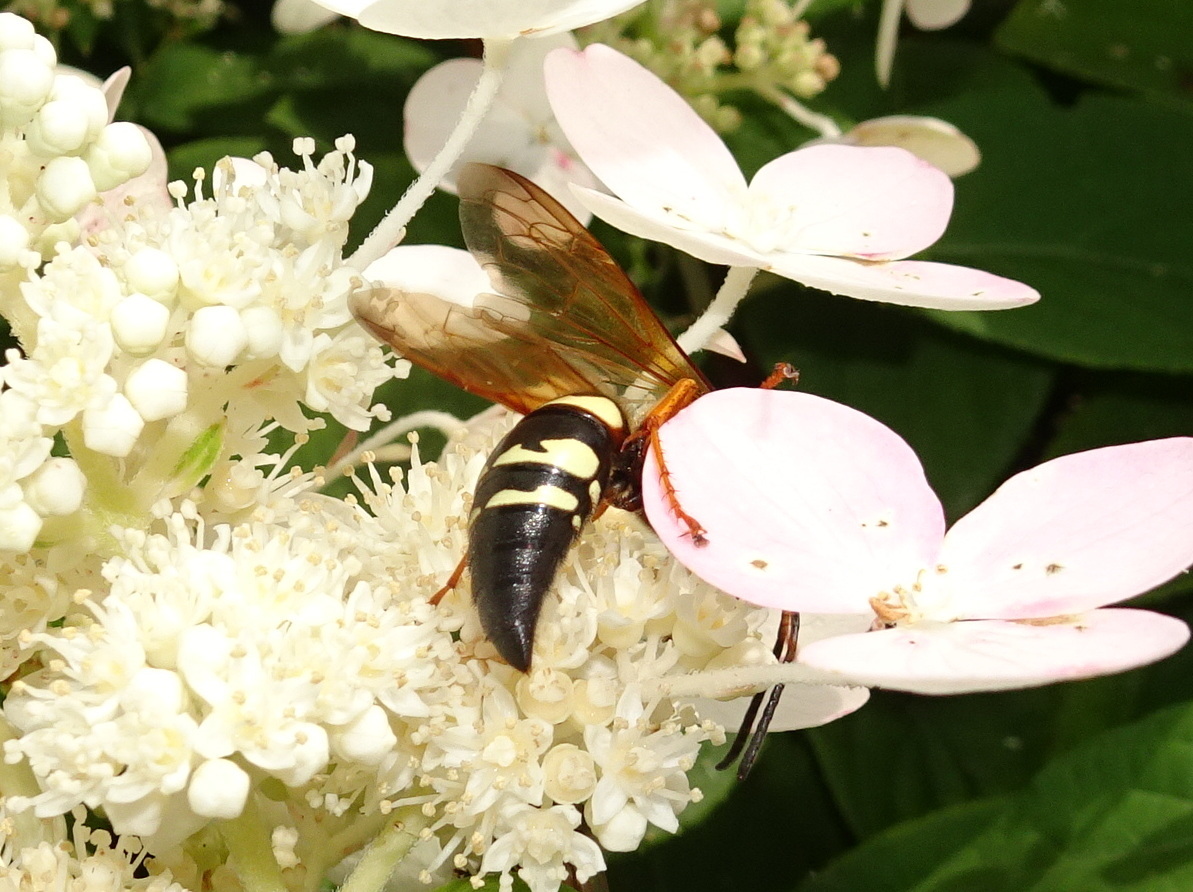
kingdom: Animalia
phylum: Arthropoda
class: Insecta
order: Hymenoptera
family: Crabronidae
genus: Sphecius
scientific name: Sphecius speciosus
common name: Cicada killer
